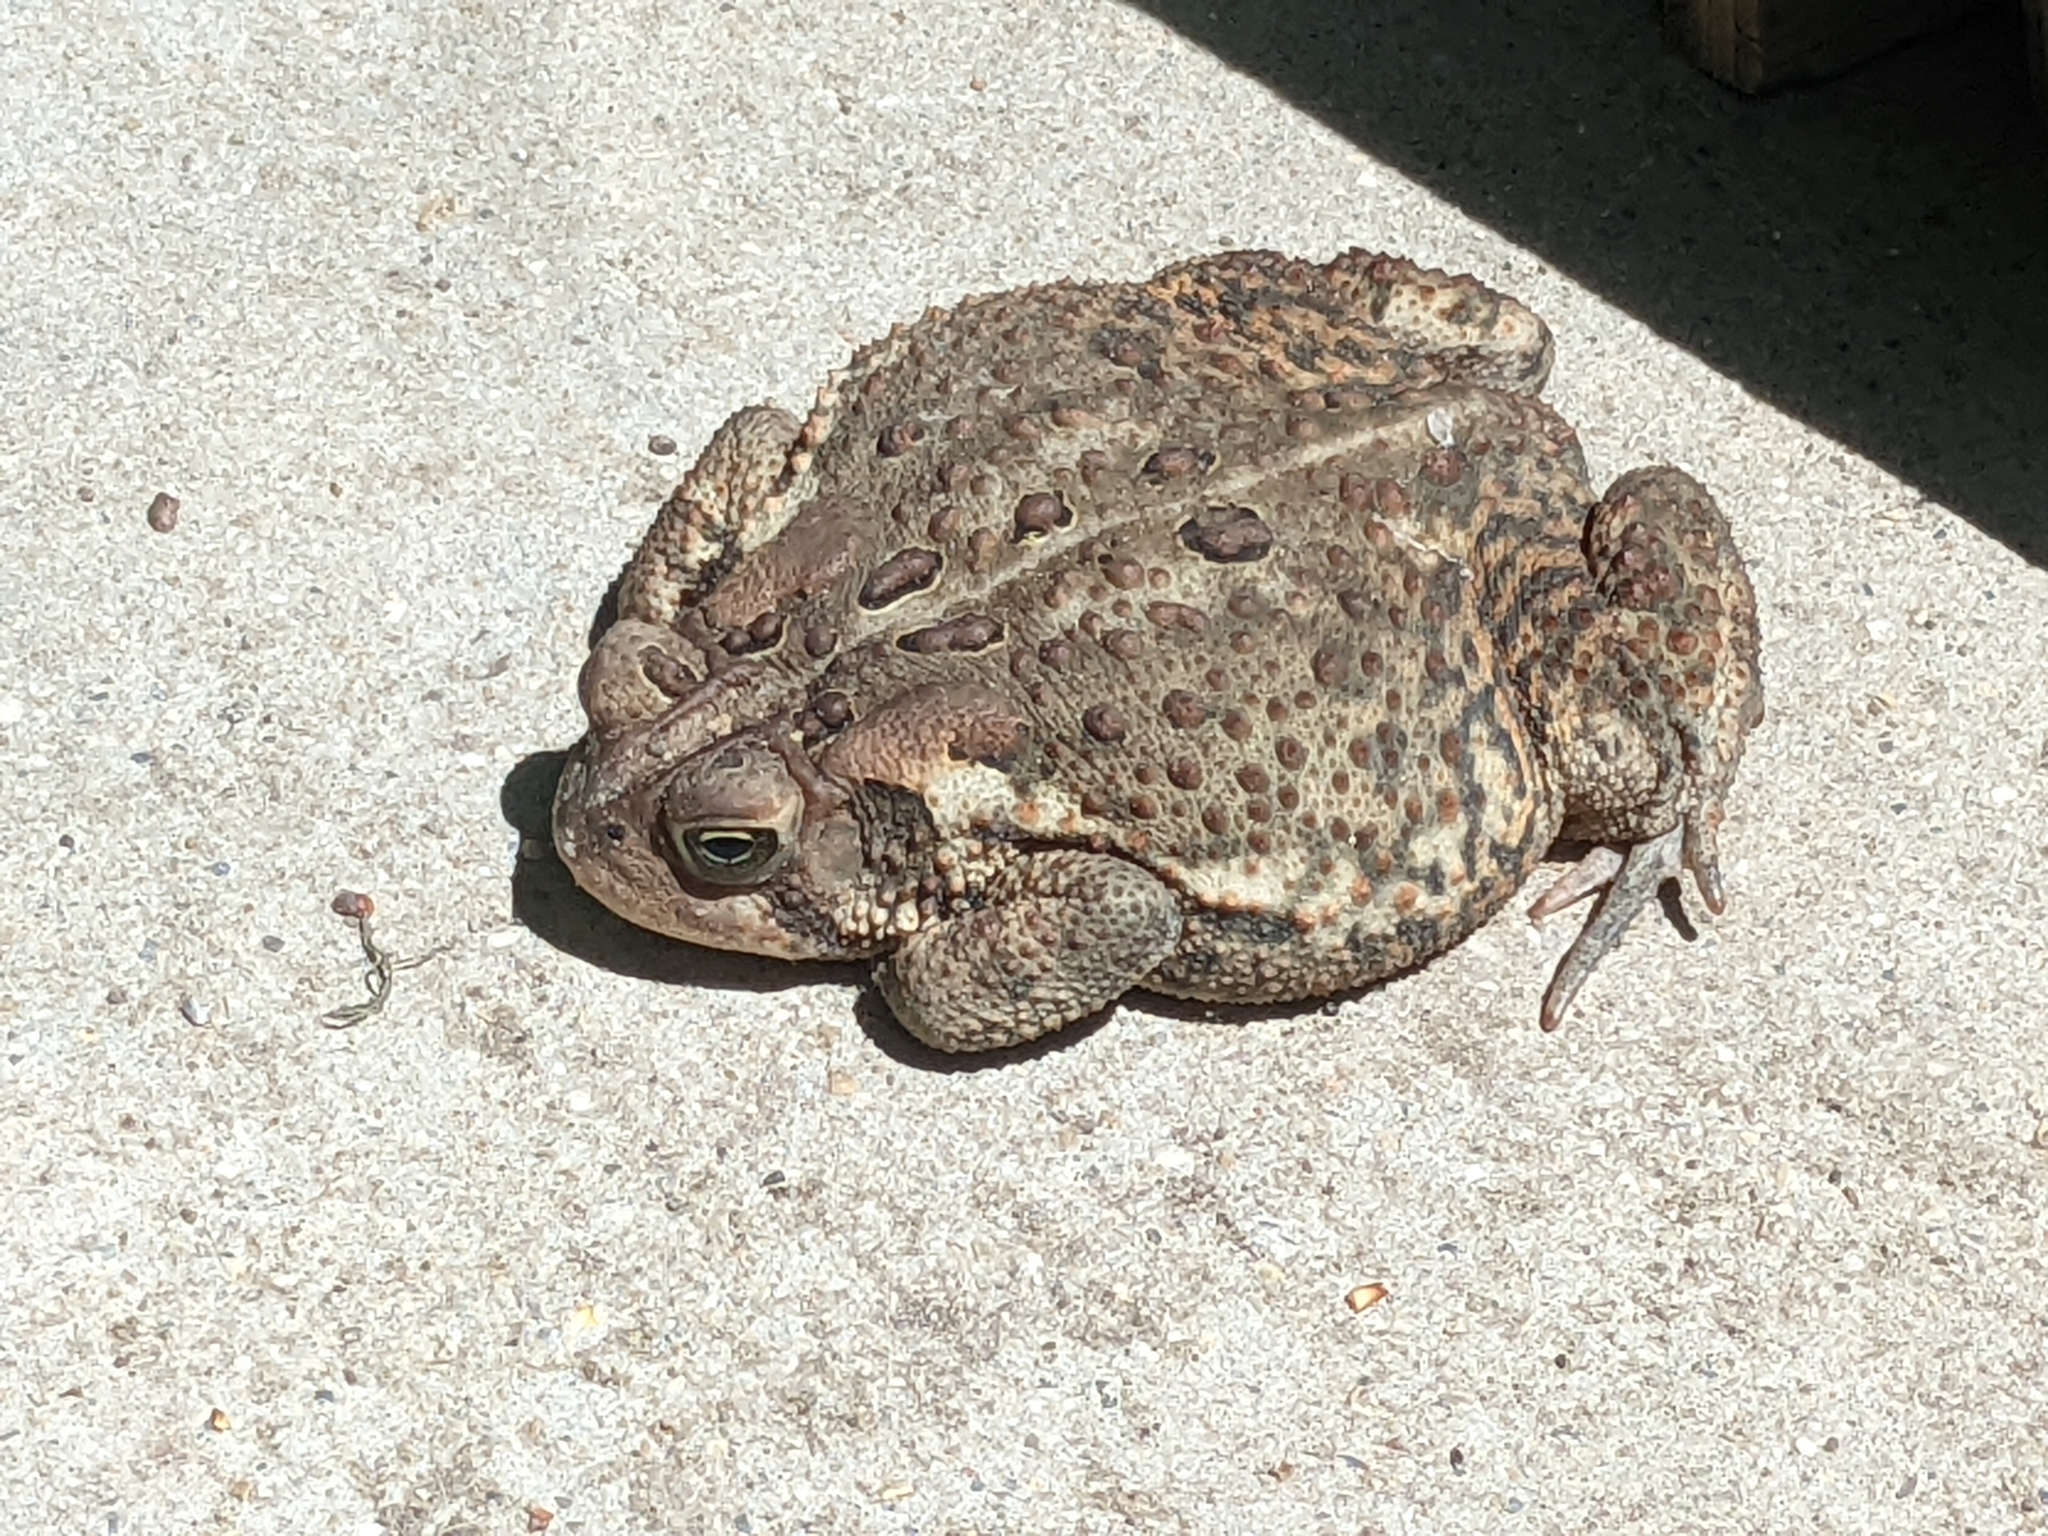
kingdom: Animalia
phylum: Chordata
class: Amphibia
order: Anura
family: Bufonidae
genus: Anaxyrus
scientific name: Anaxyrus americanus
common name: American toad
